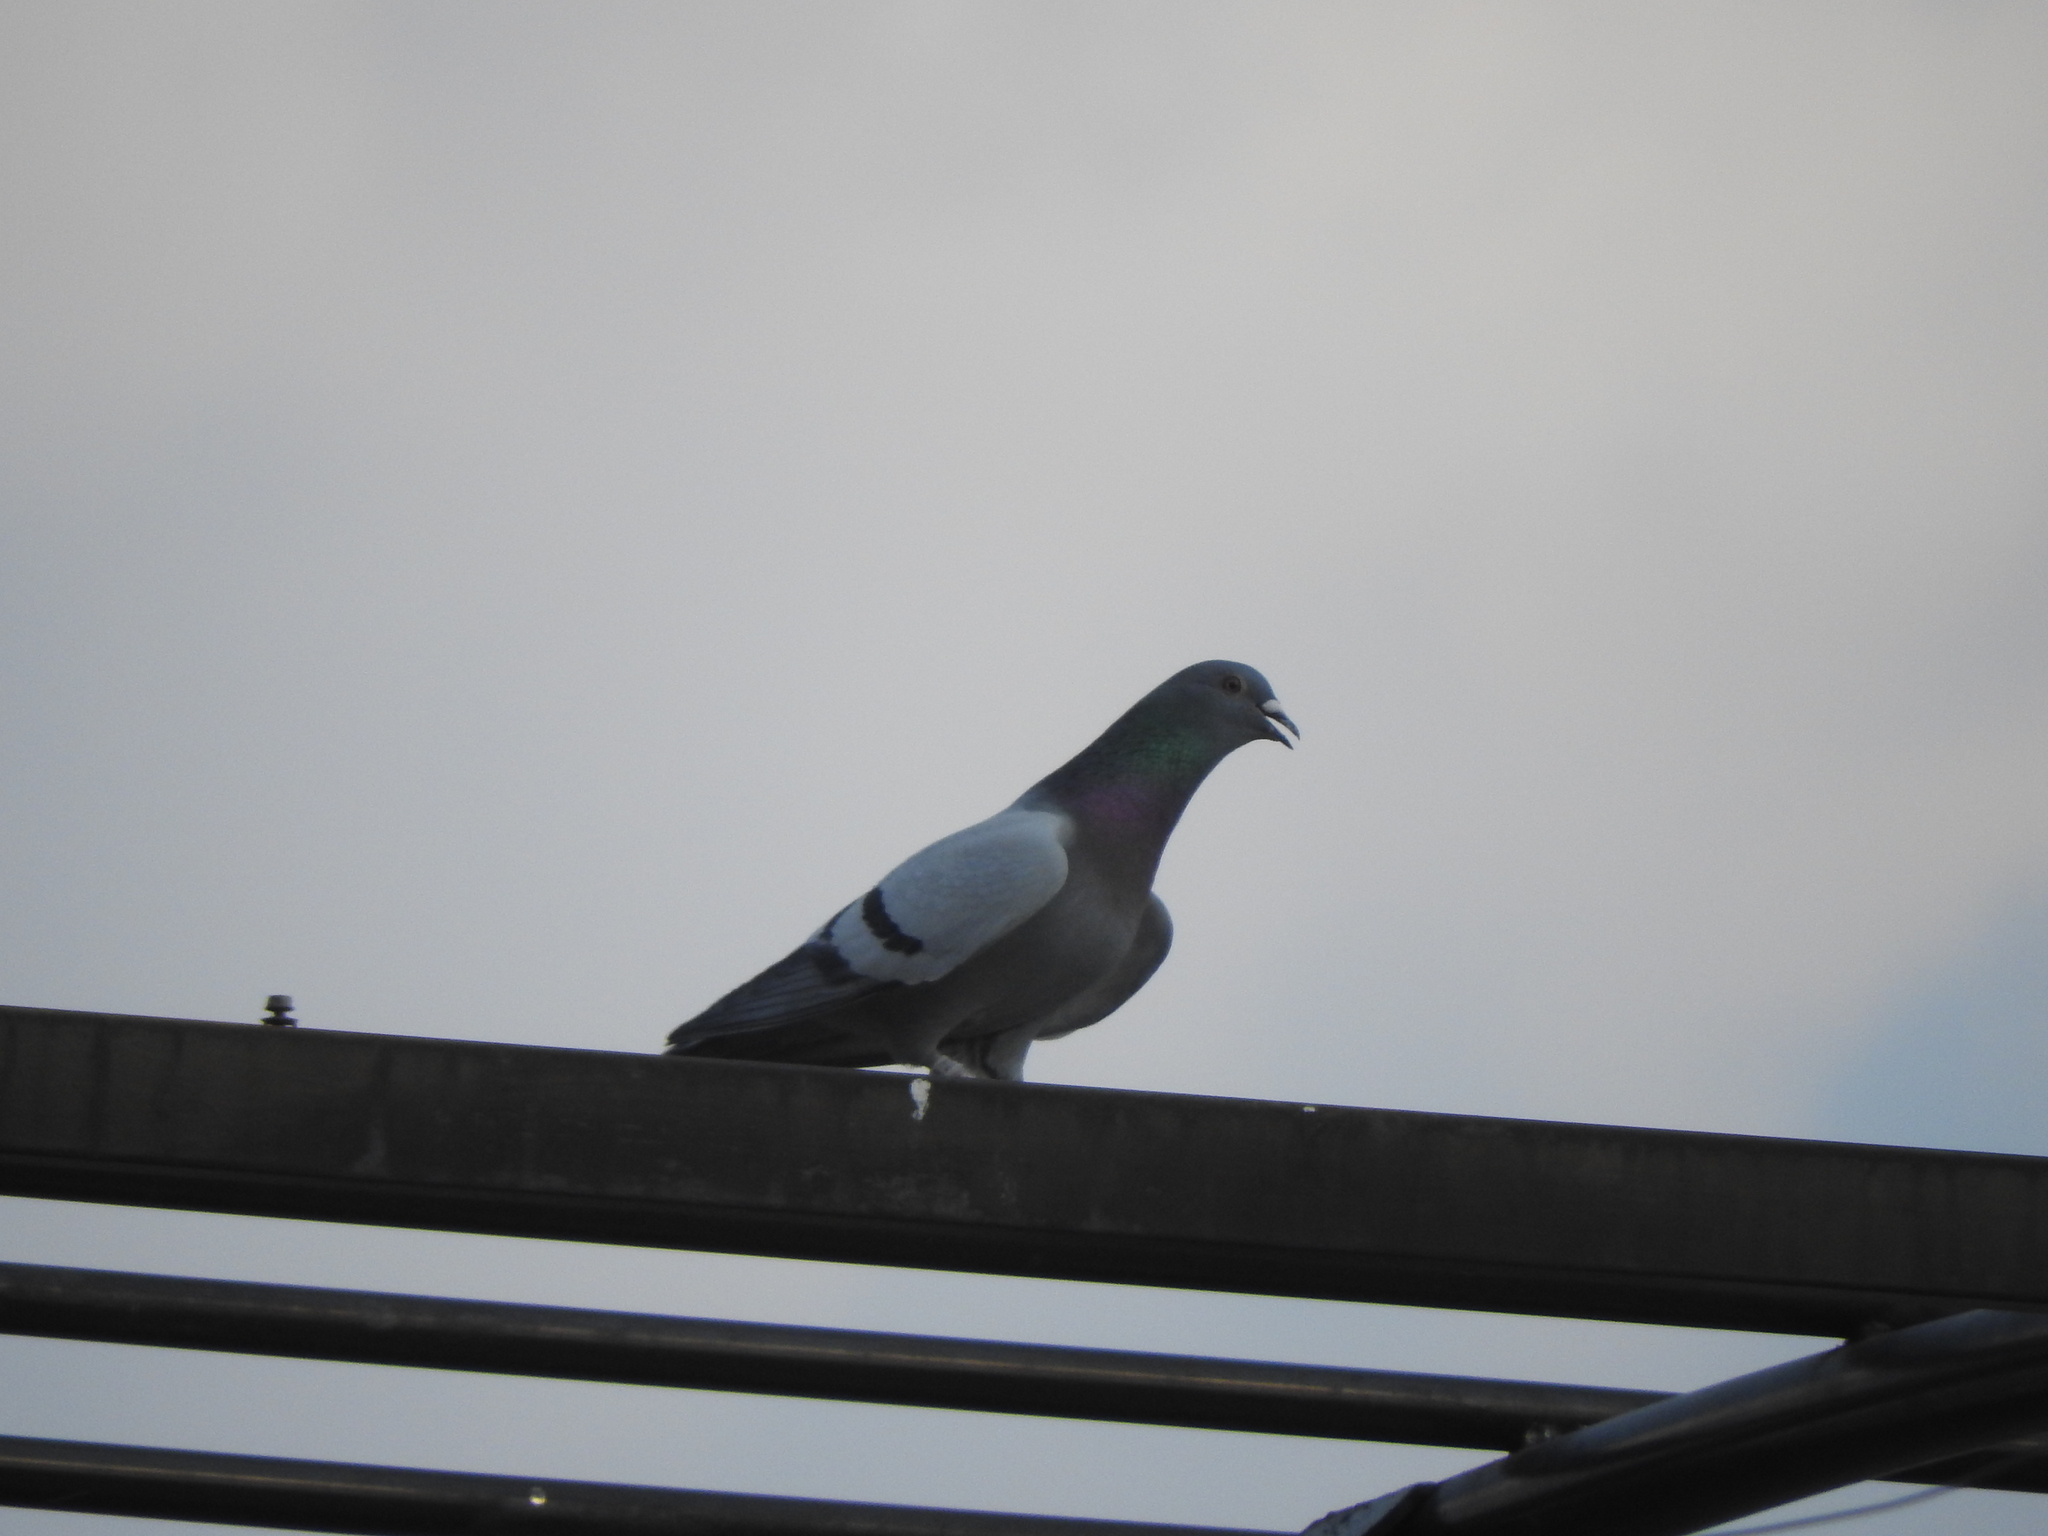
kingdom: Animalia
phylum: Chordata
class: Aves
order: Columbiformes
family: Columbidae
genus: Columba
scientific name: Columba livia
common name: Rock pigeon
